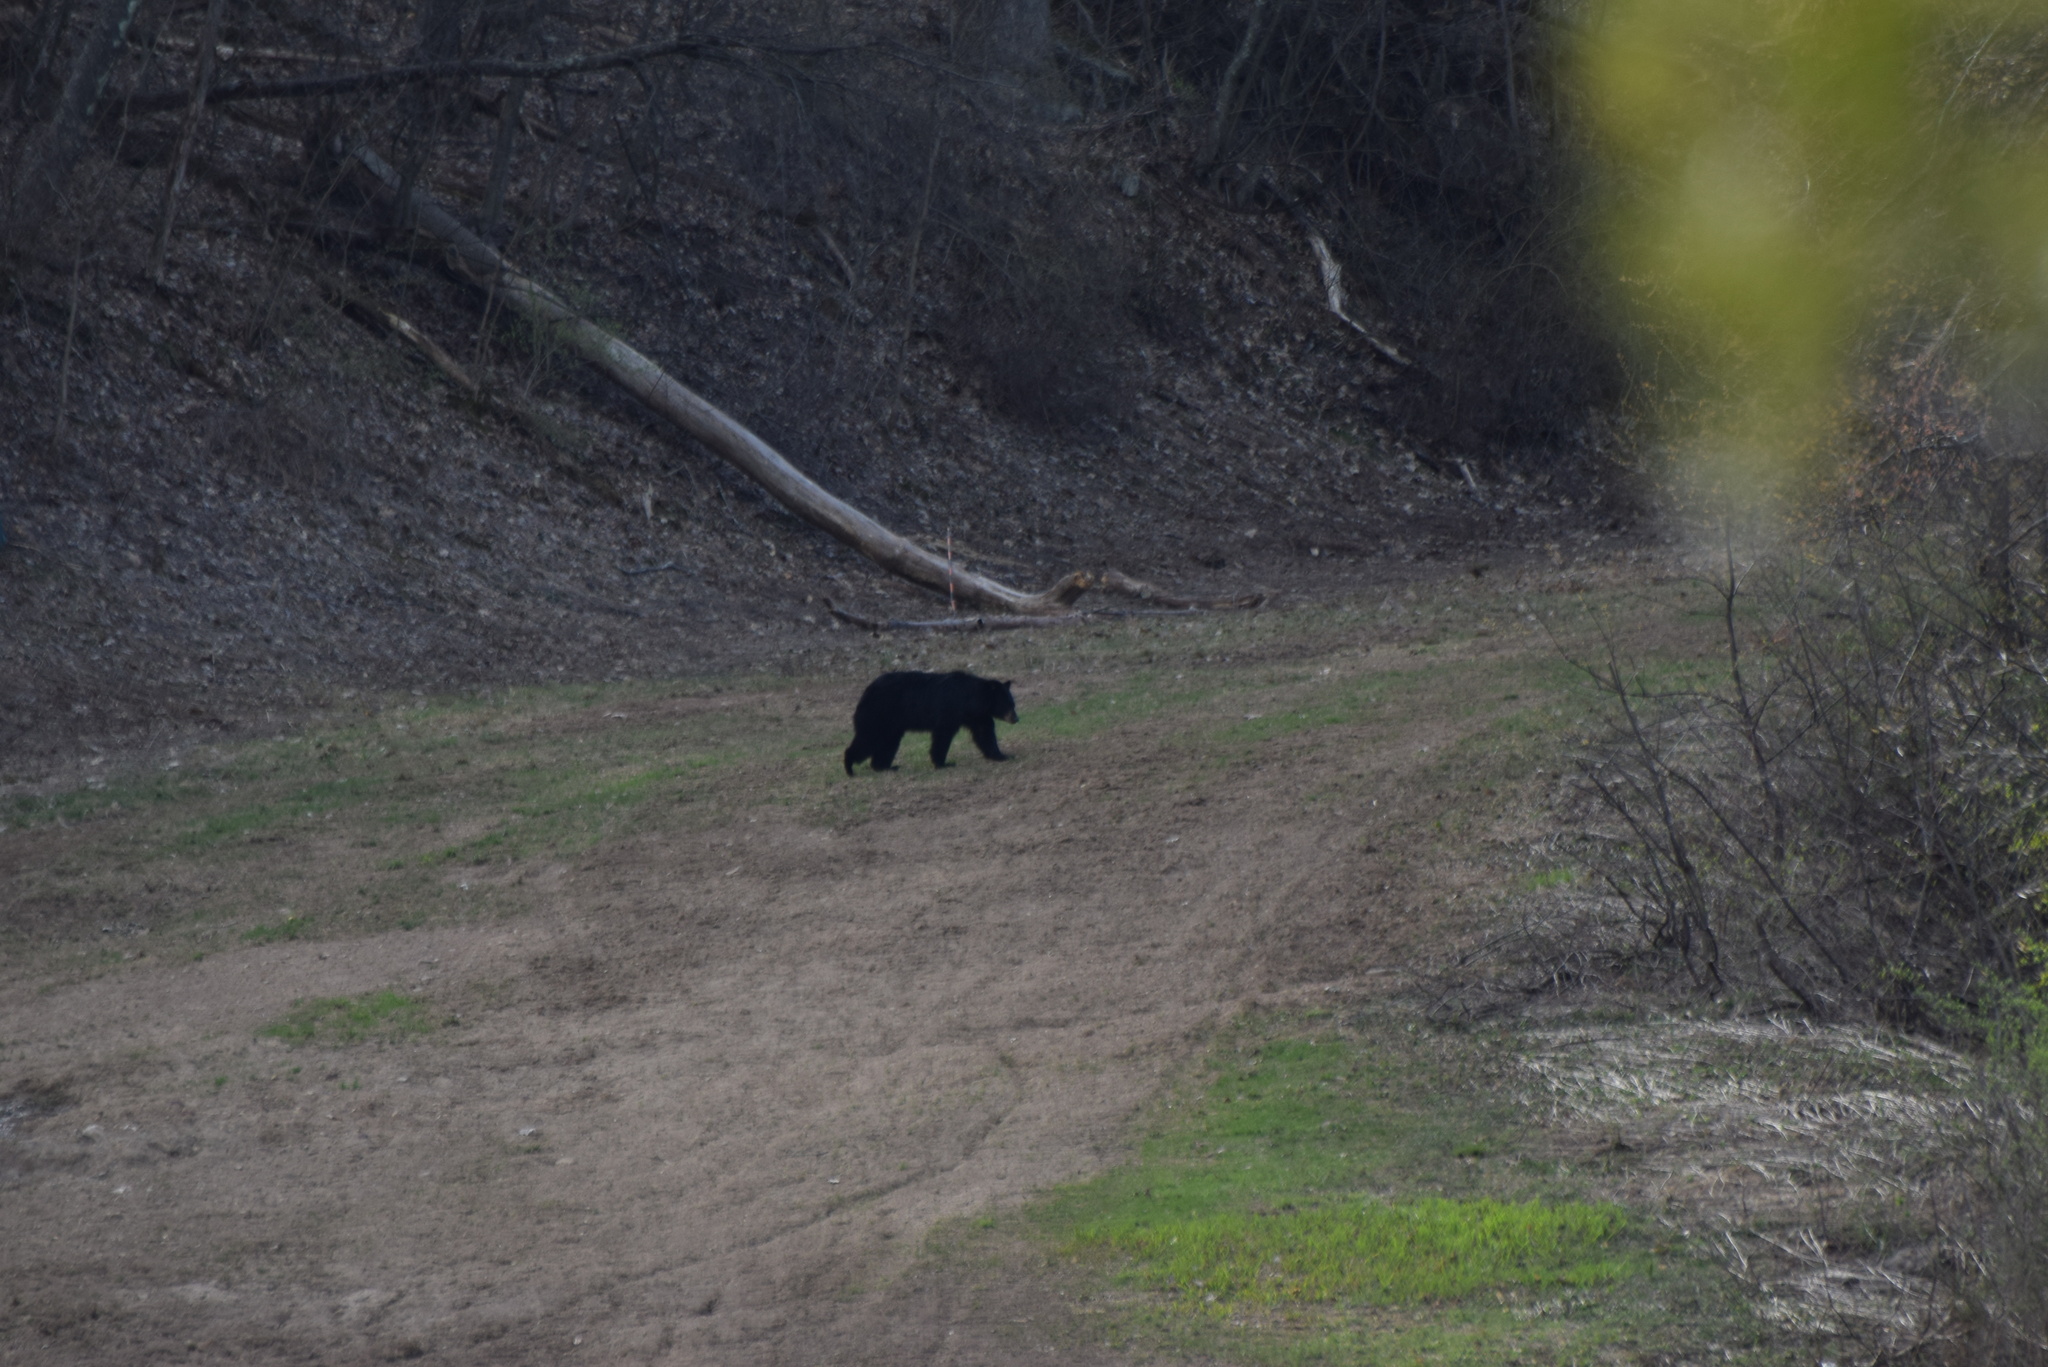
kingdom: Animalia
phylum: Chordata
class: Mammalia
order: Carnivora
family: Ursidae
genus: Ursus
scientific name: Ursus americanus
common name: American black bear
